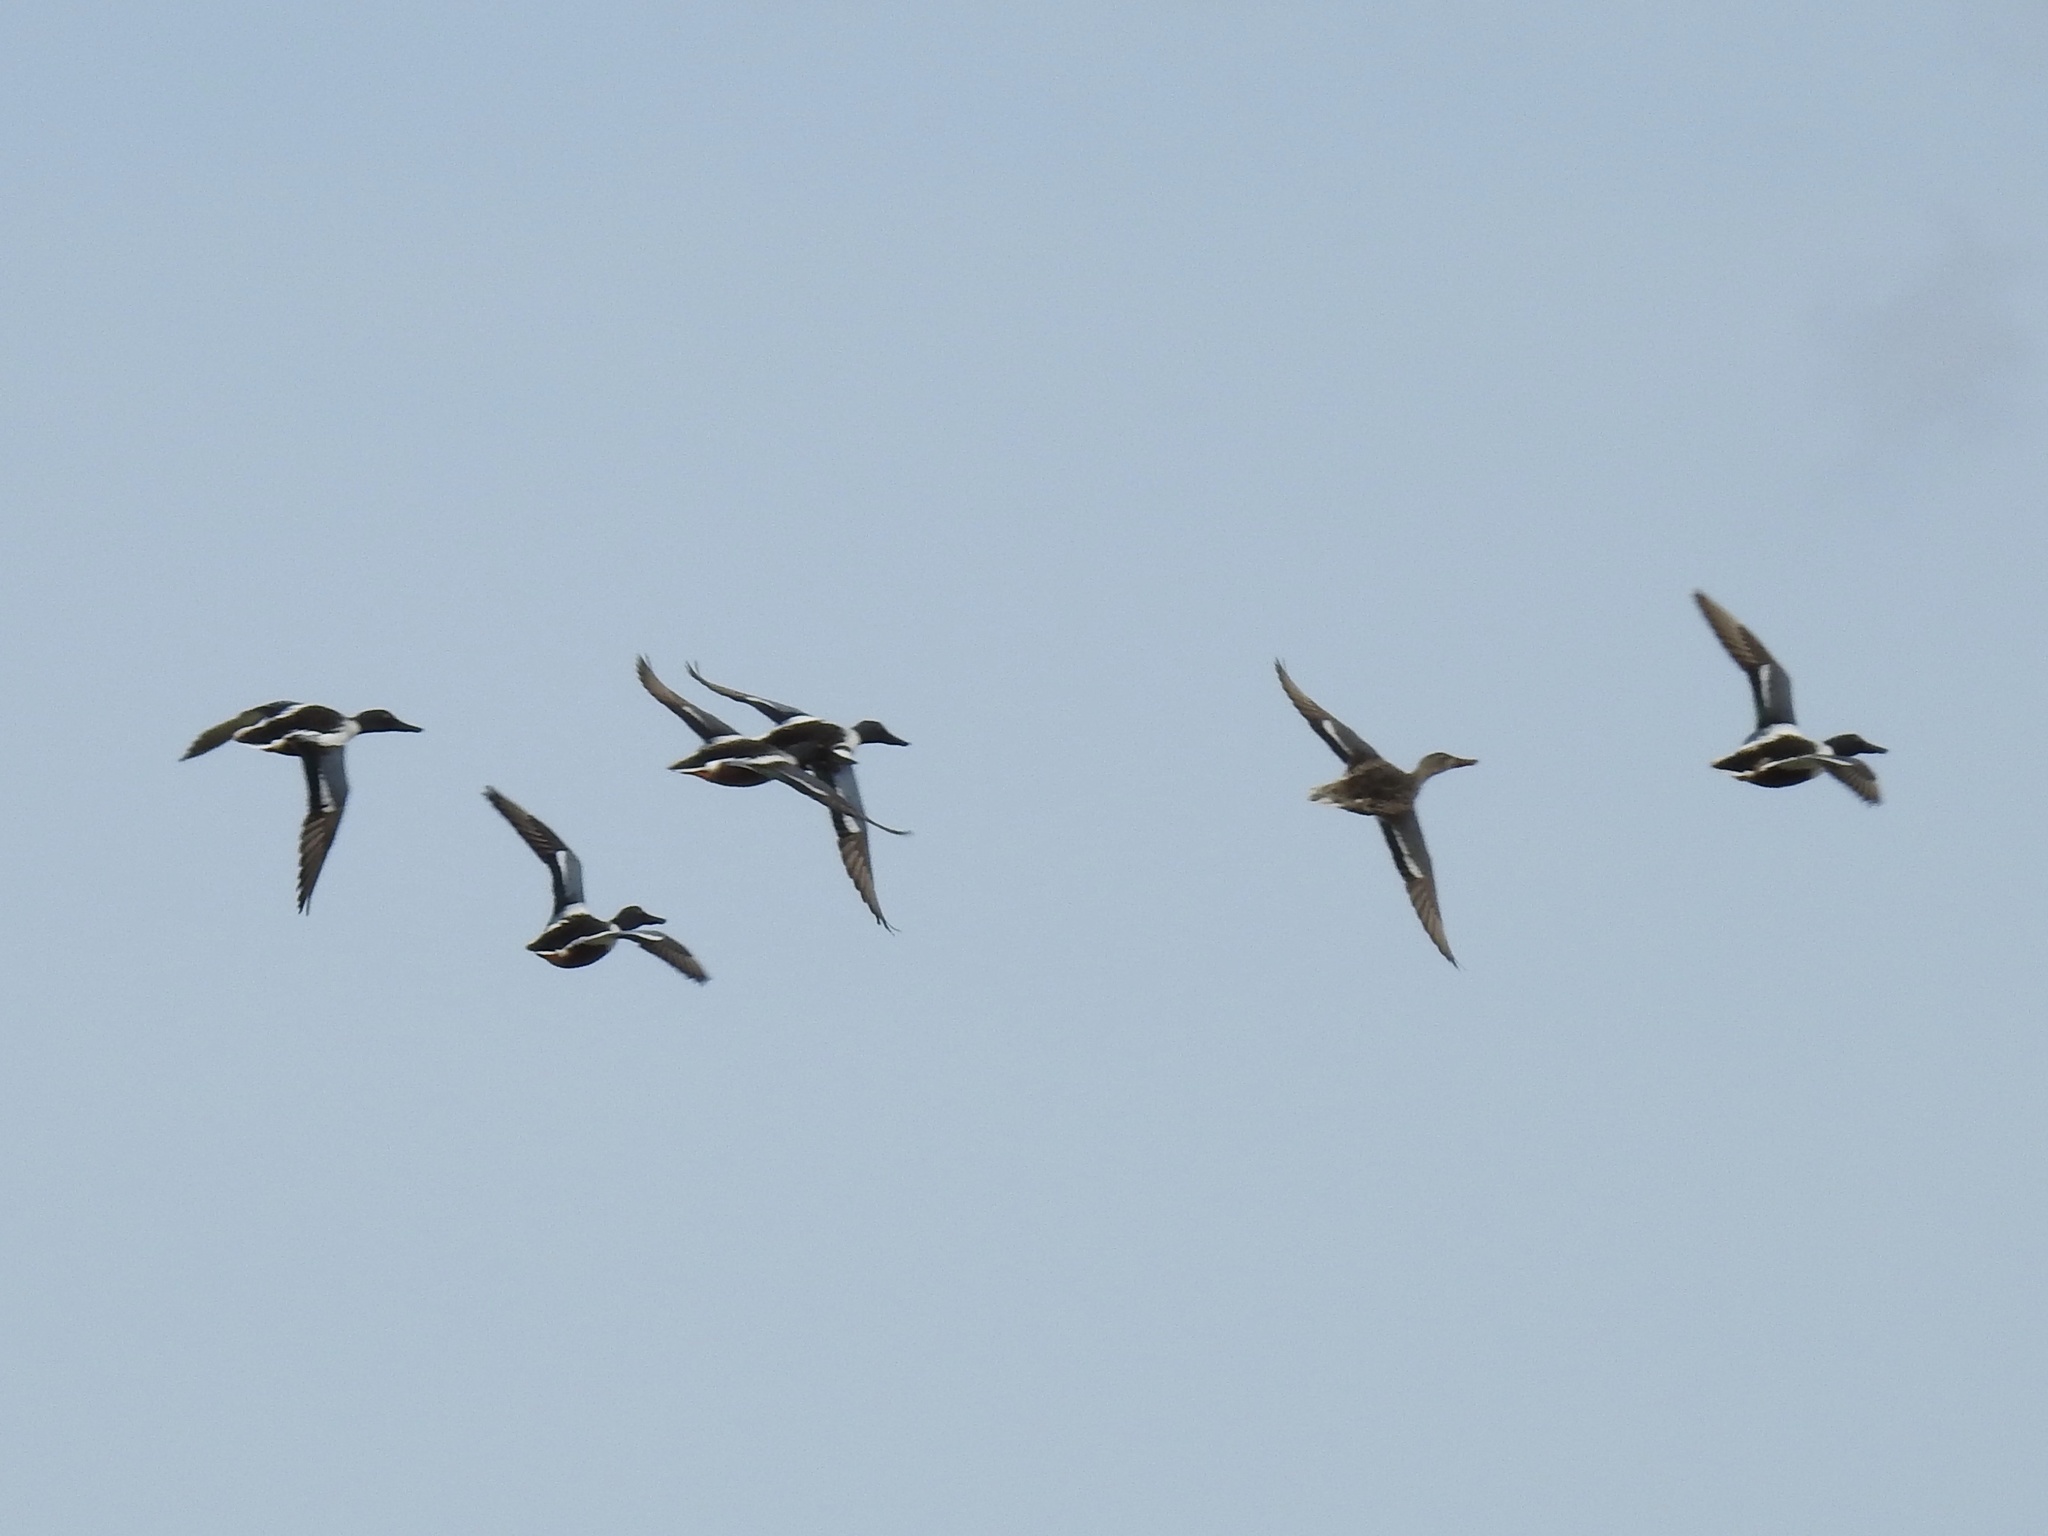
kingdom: Animalia
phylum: Chordata
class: Aves
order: Anseriformes
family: Anatidae
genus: Spatula
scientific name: Spatula clypeata
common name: Northern shoveler
